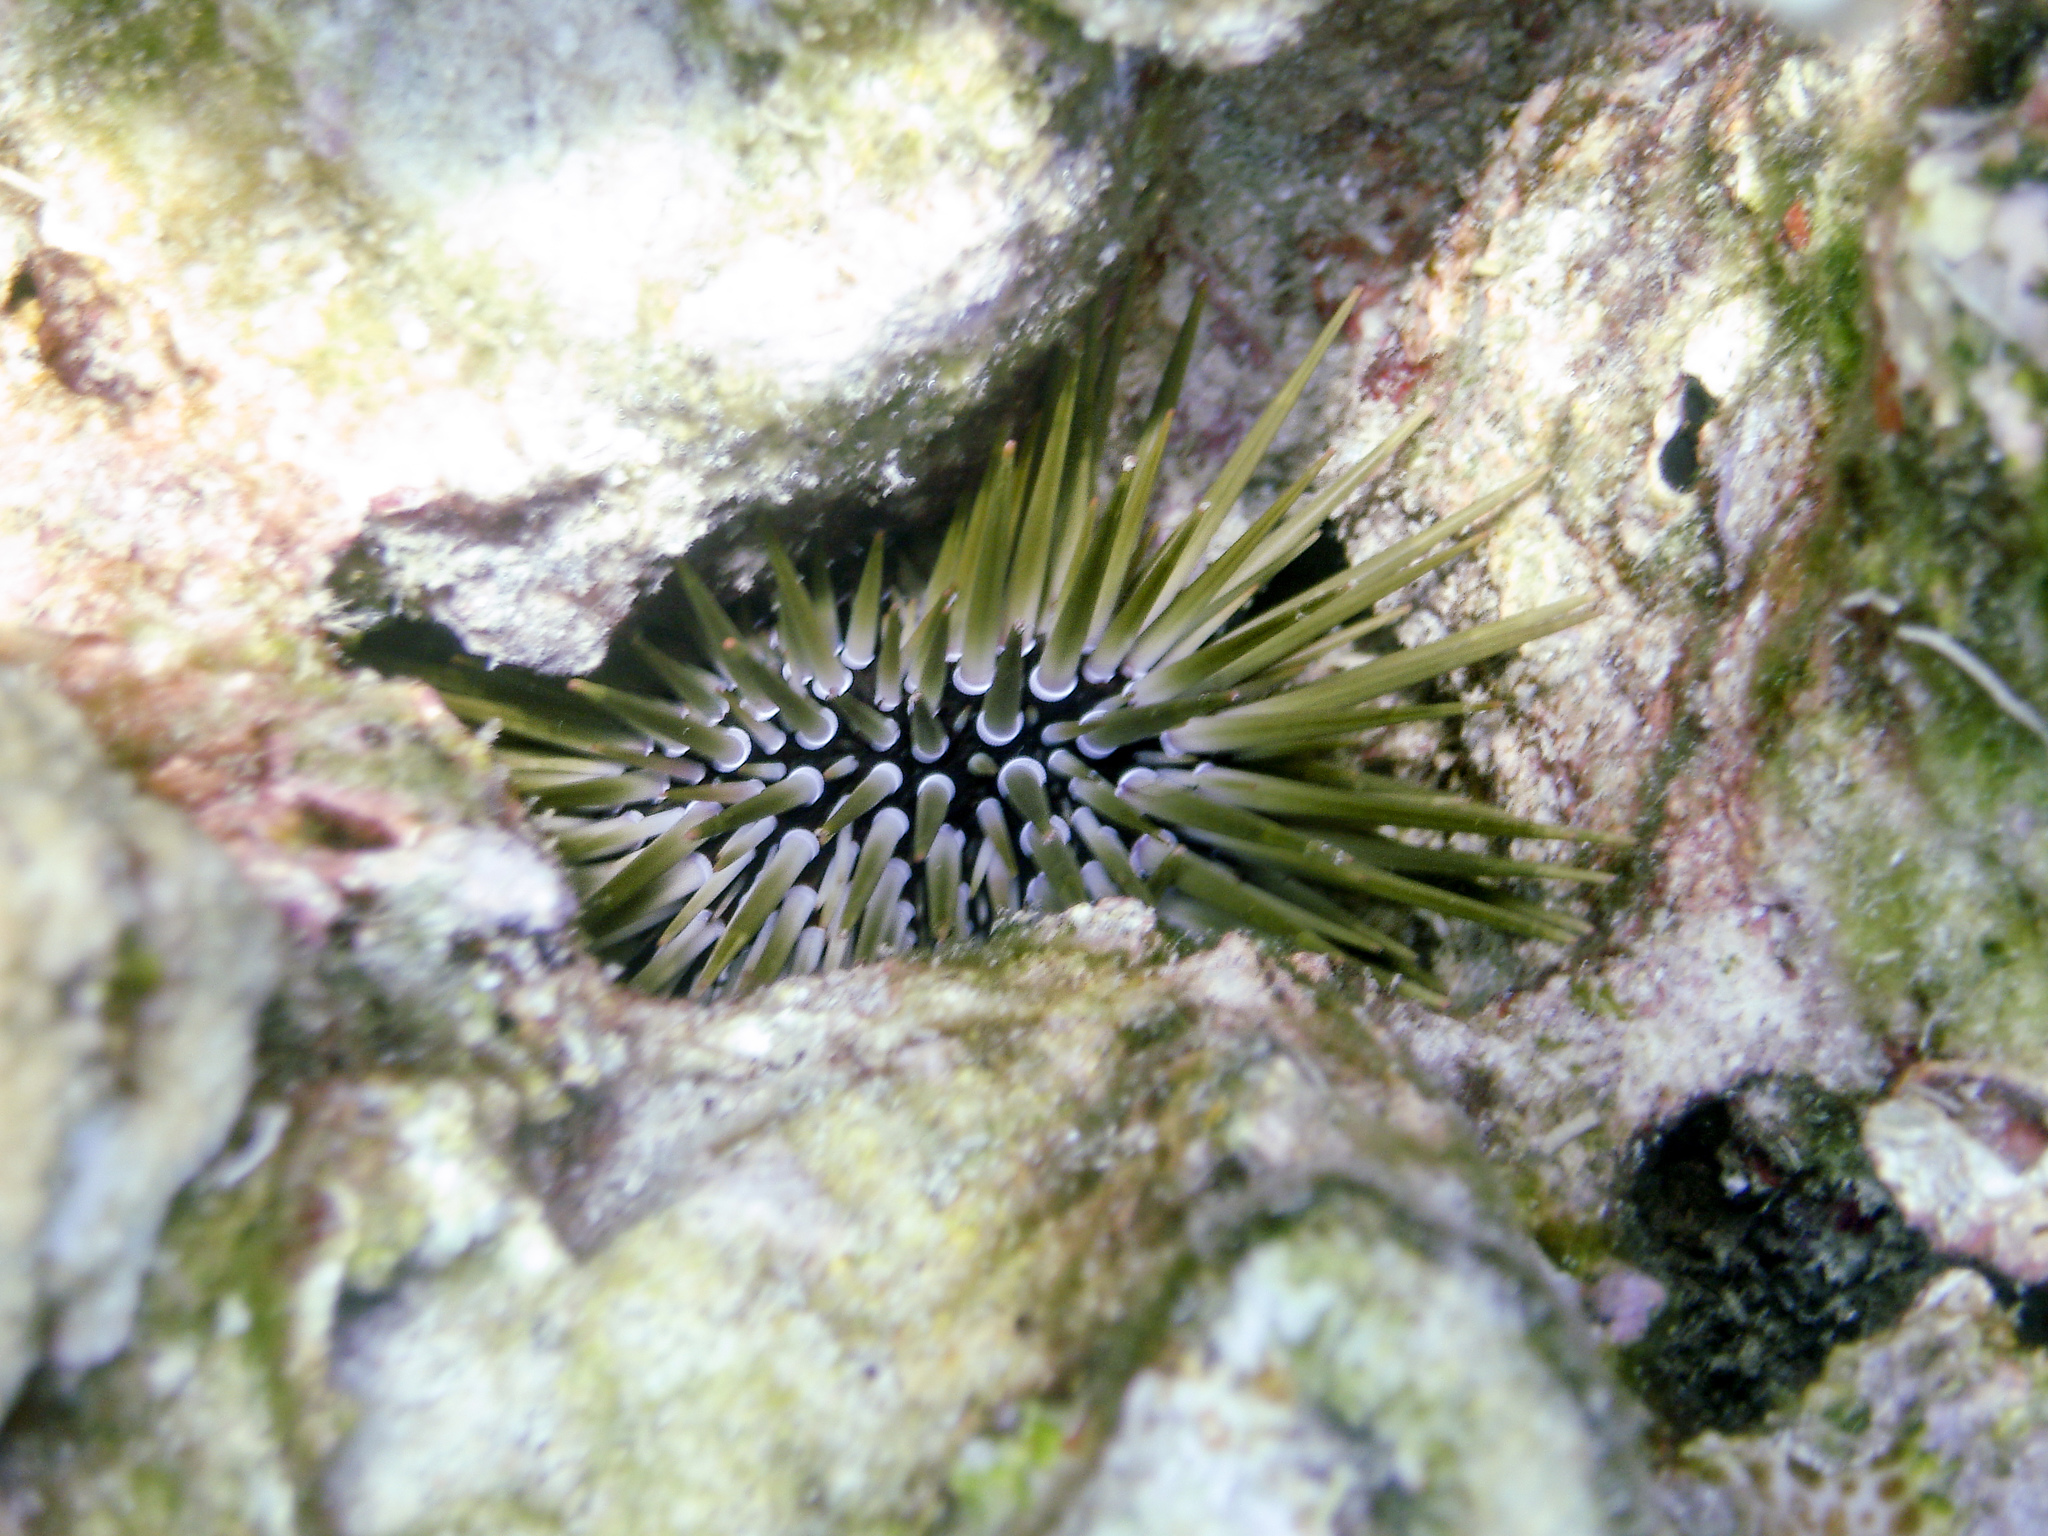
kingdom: Animalia
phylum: Echinodermata
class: Echinoidea
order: Camarodonta
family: Echinometridae
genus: Echinometra
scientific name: Echinometra mathaei
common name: Rock-boring urchin
